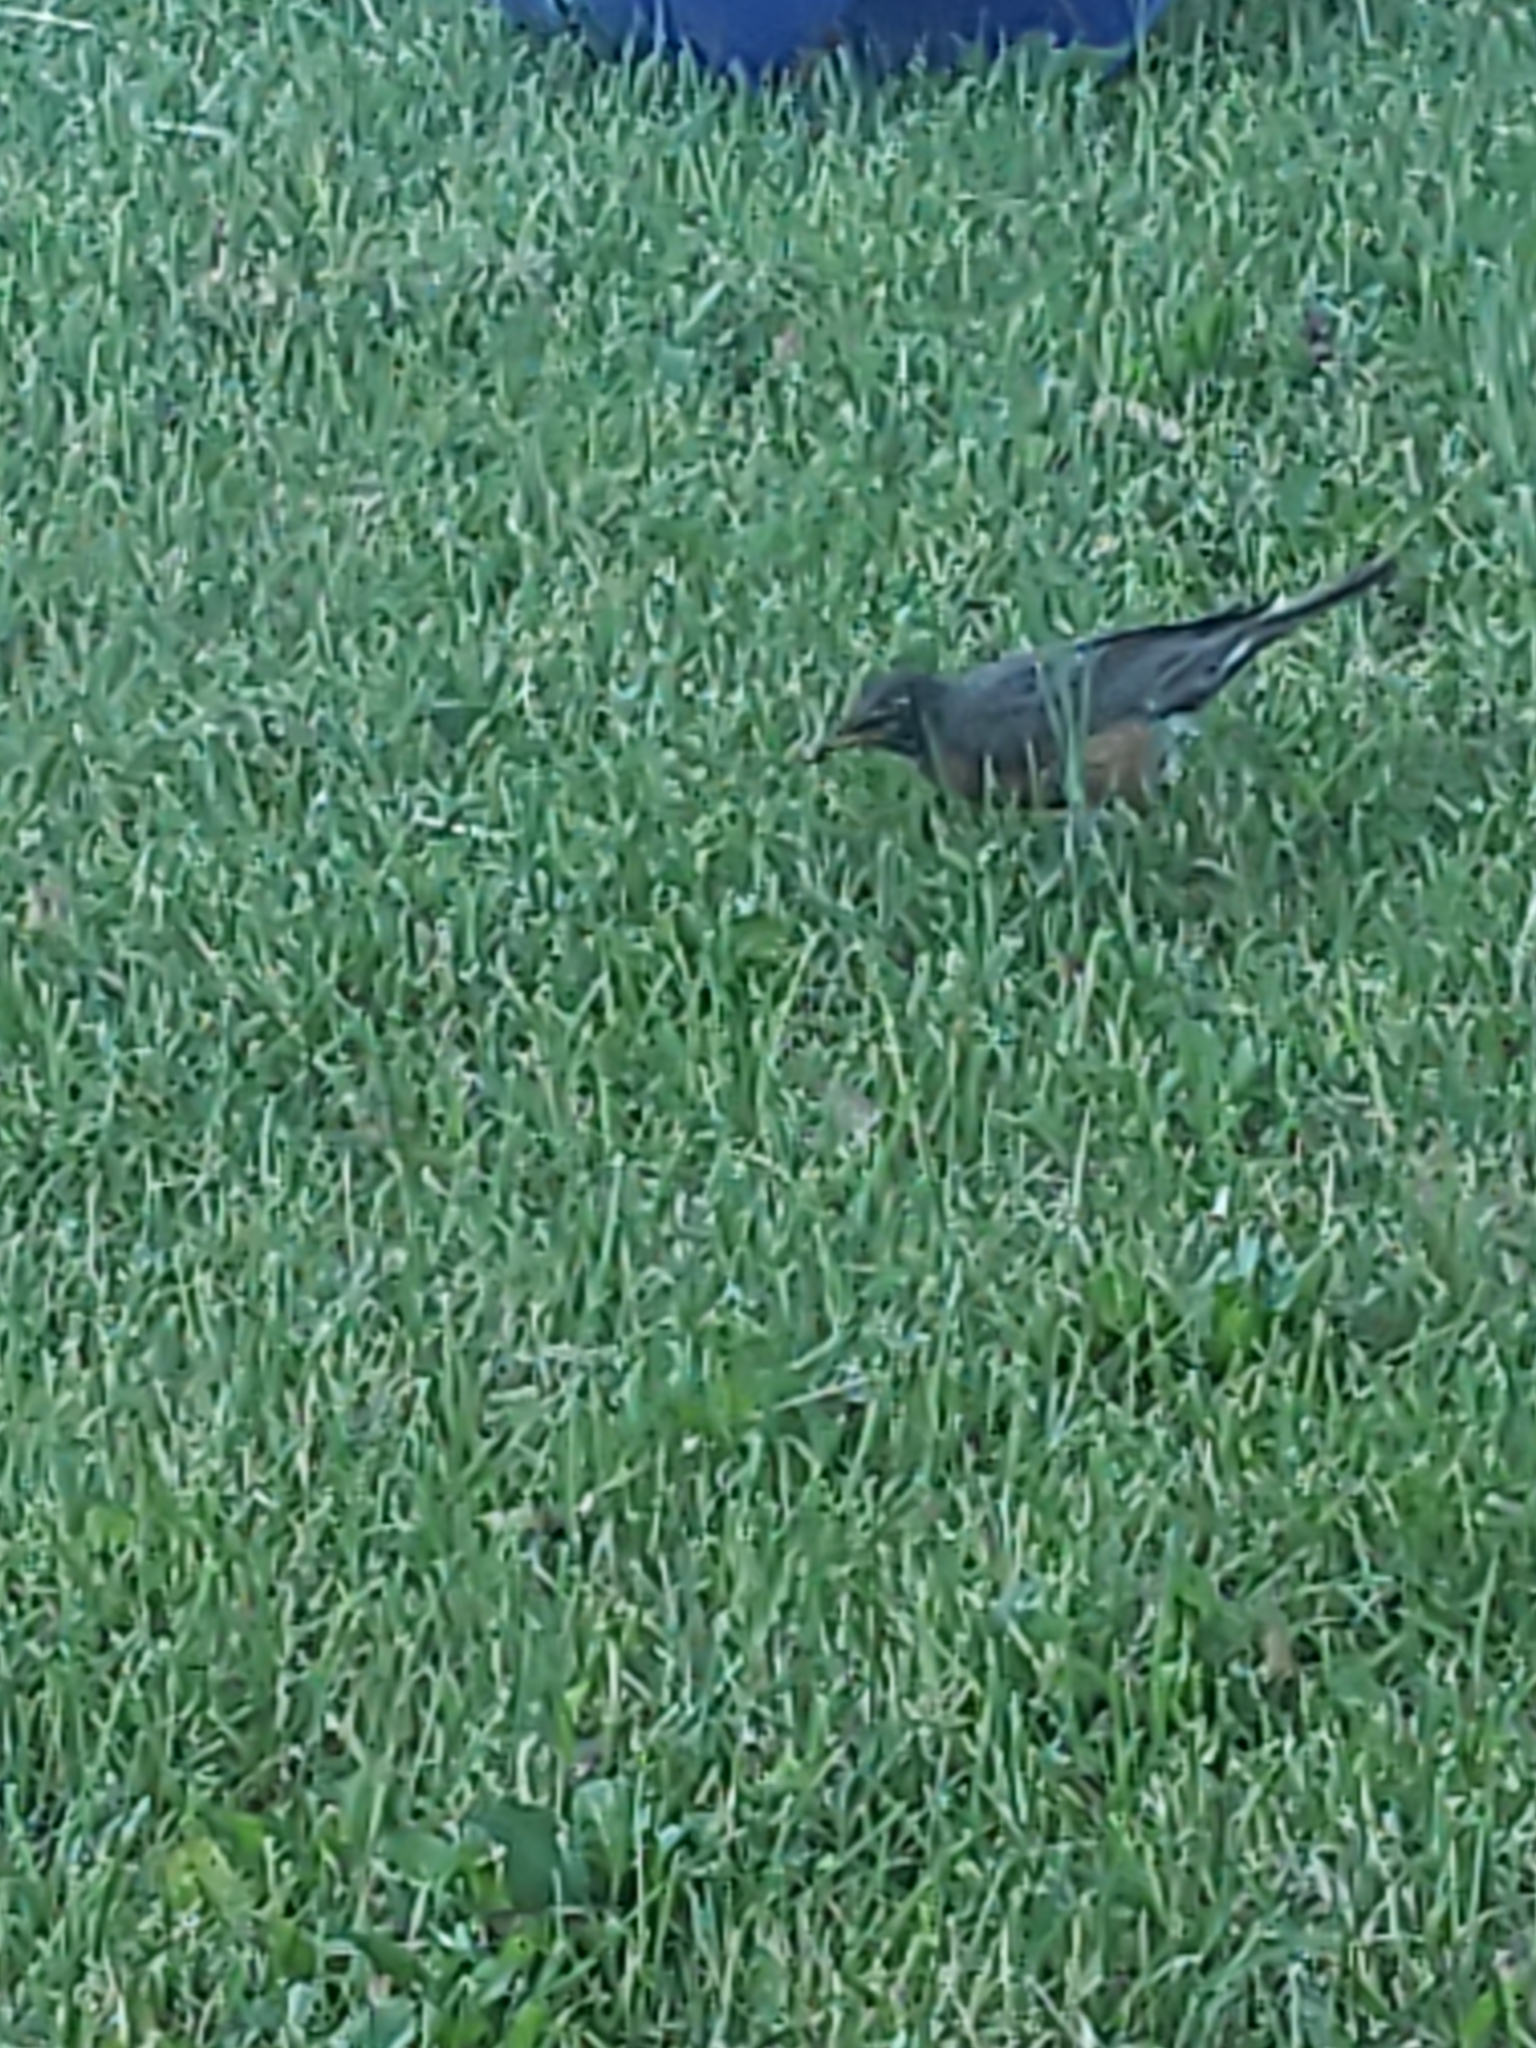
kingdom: Animalia
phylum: Chordata
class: Aves
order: Passeriformes
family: Turdidae
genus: Turdus
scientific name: Turdus migratorius
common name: American robin
